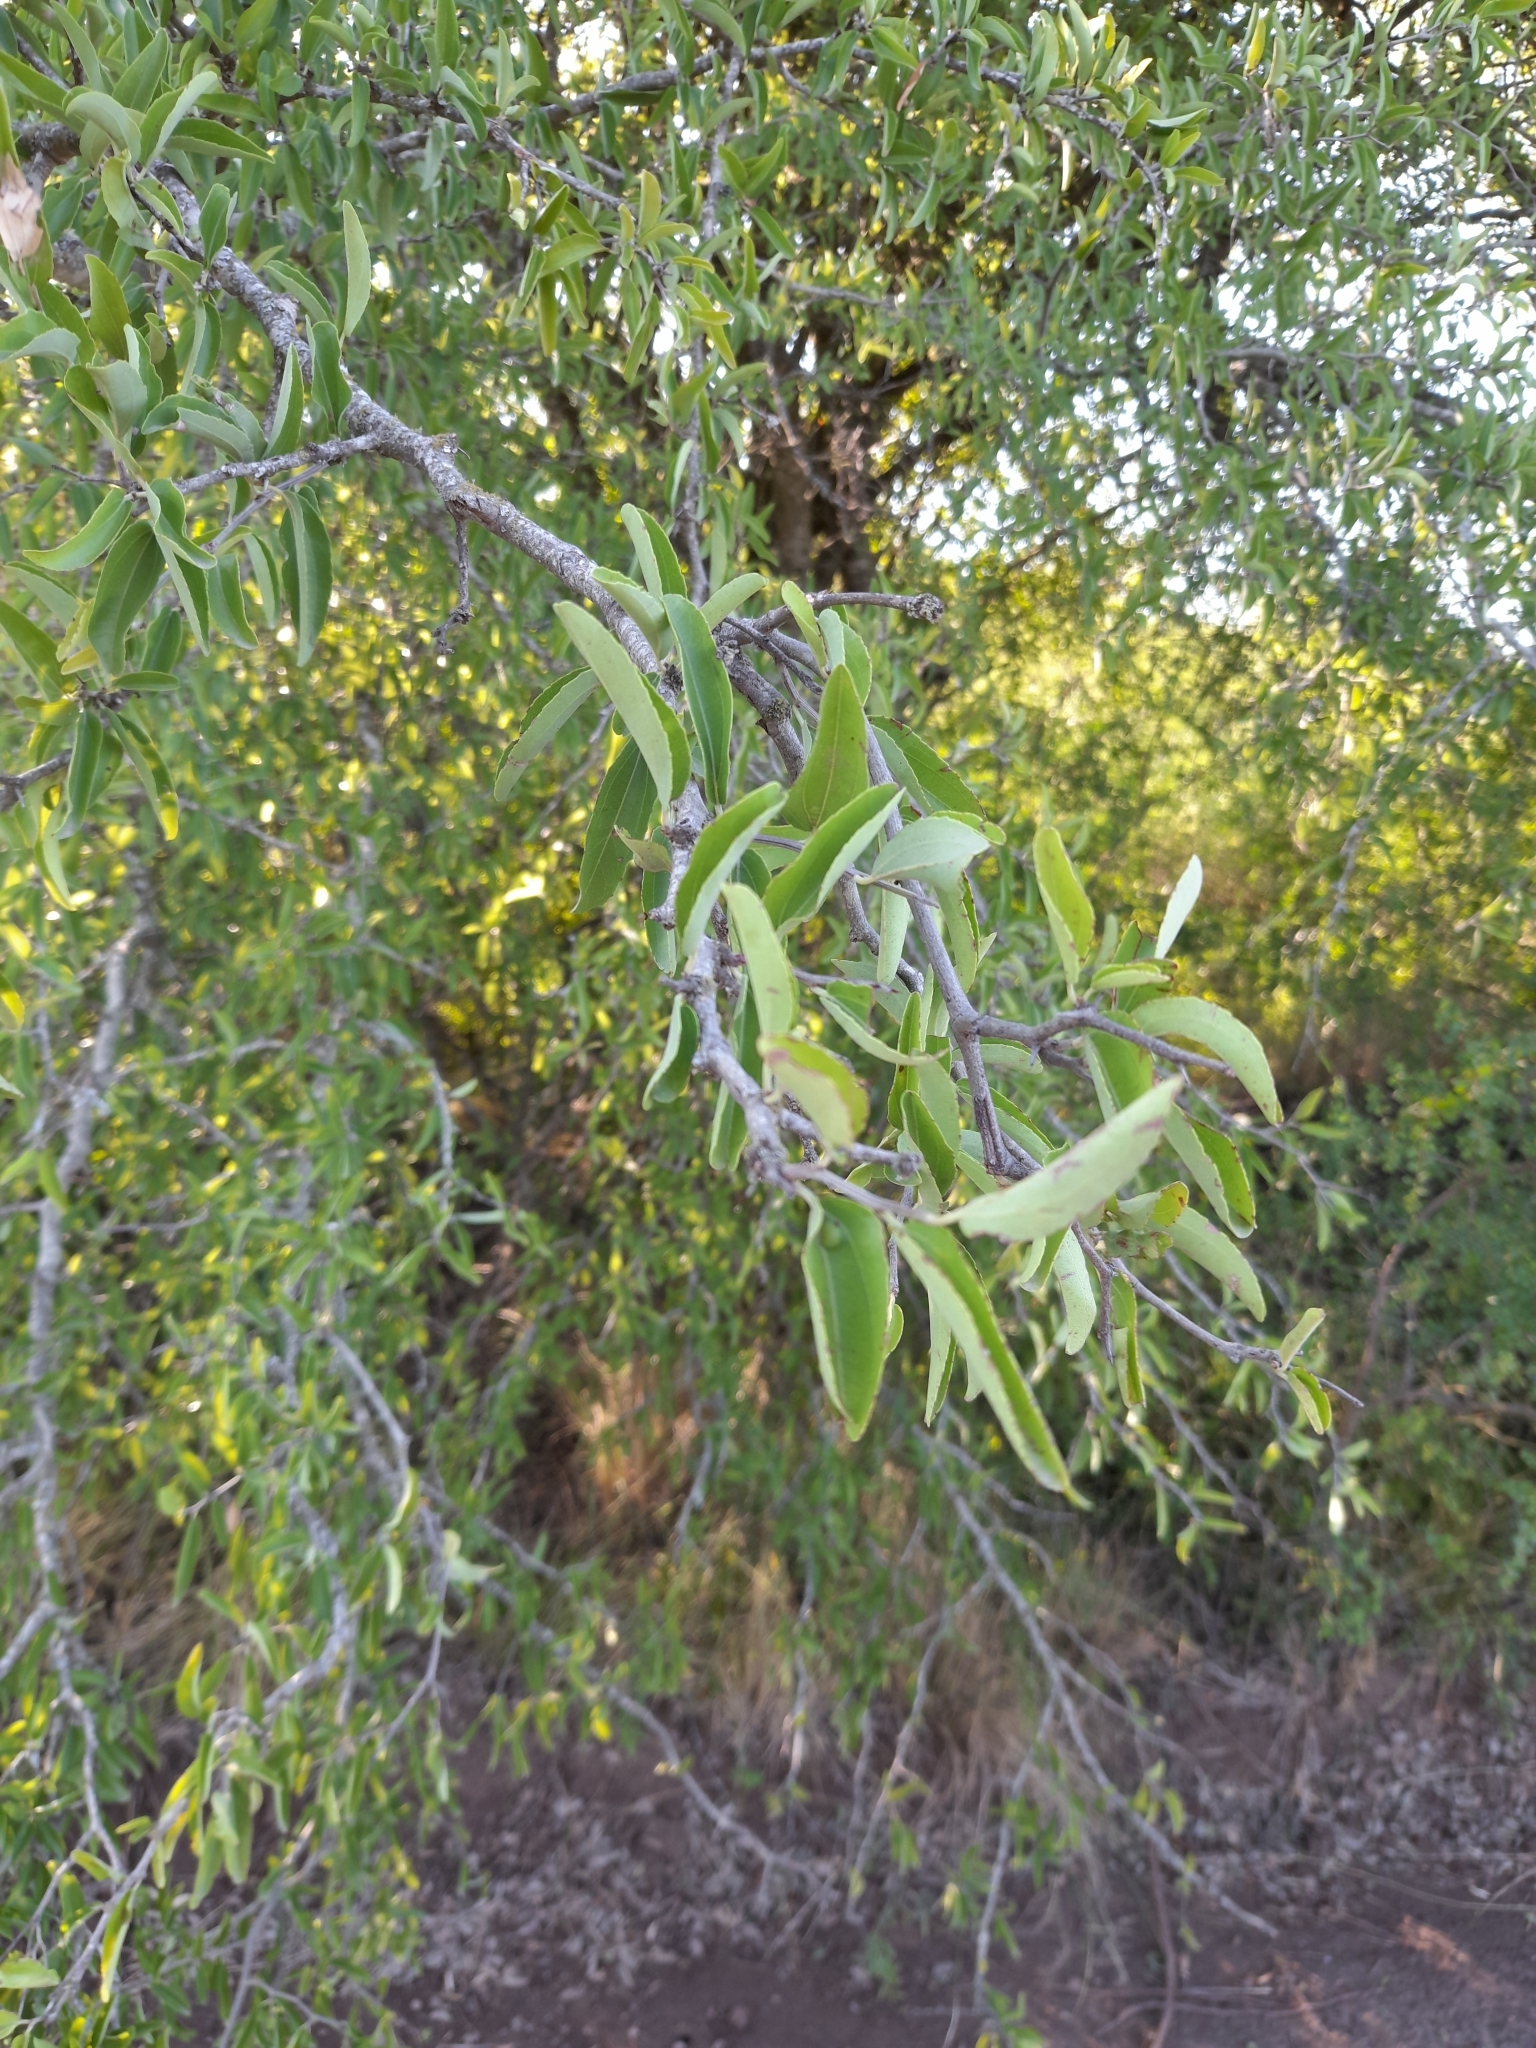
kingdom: Plantae
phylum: Tracheophyta
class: Magnoliopsida
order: Rosales
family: Rhamnaceae
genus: Sarcomphalus
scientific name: Sarcomphalus mistol
